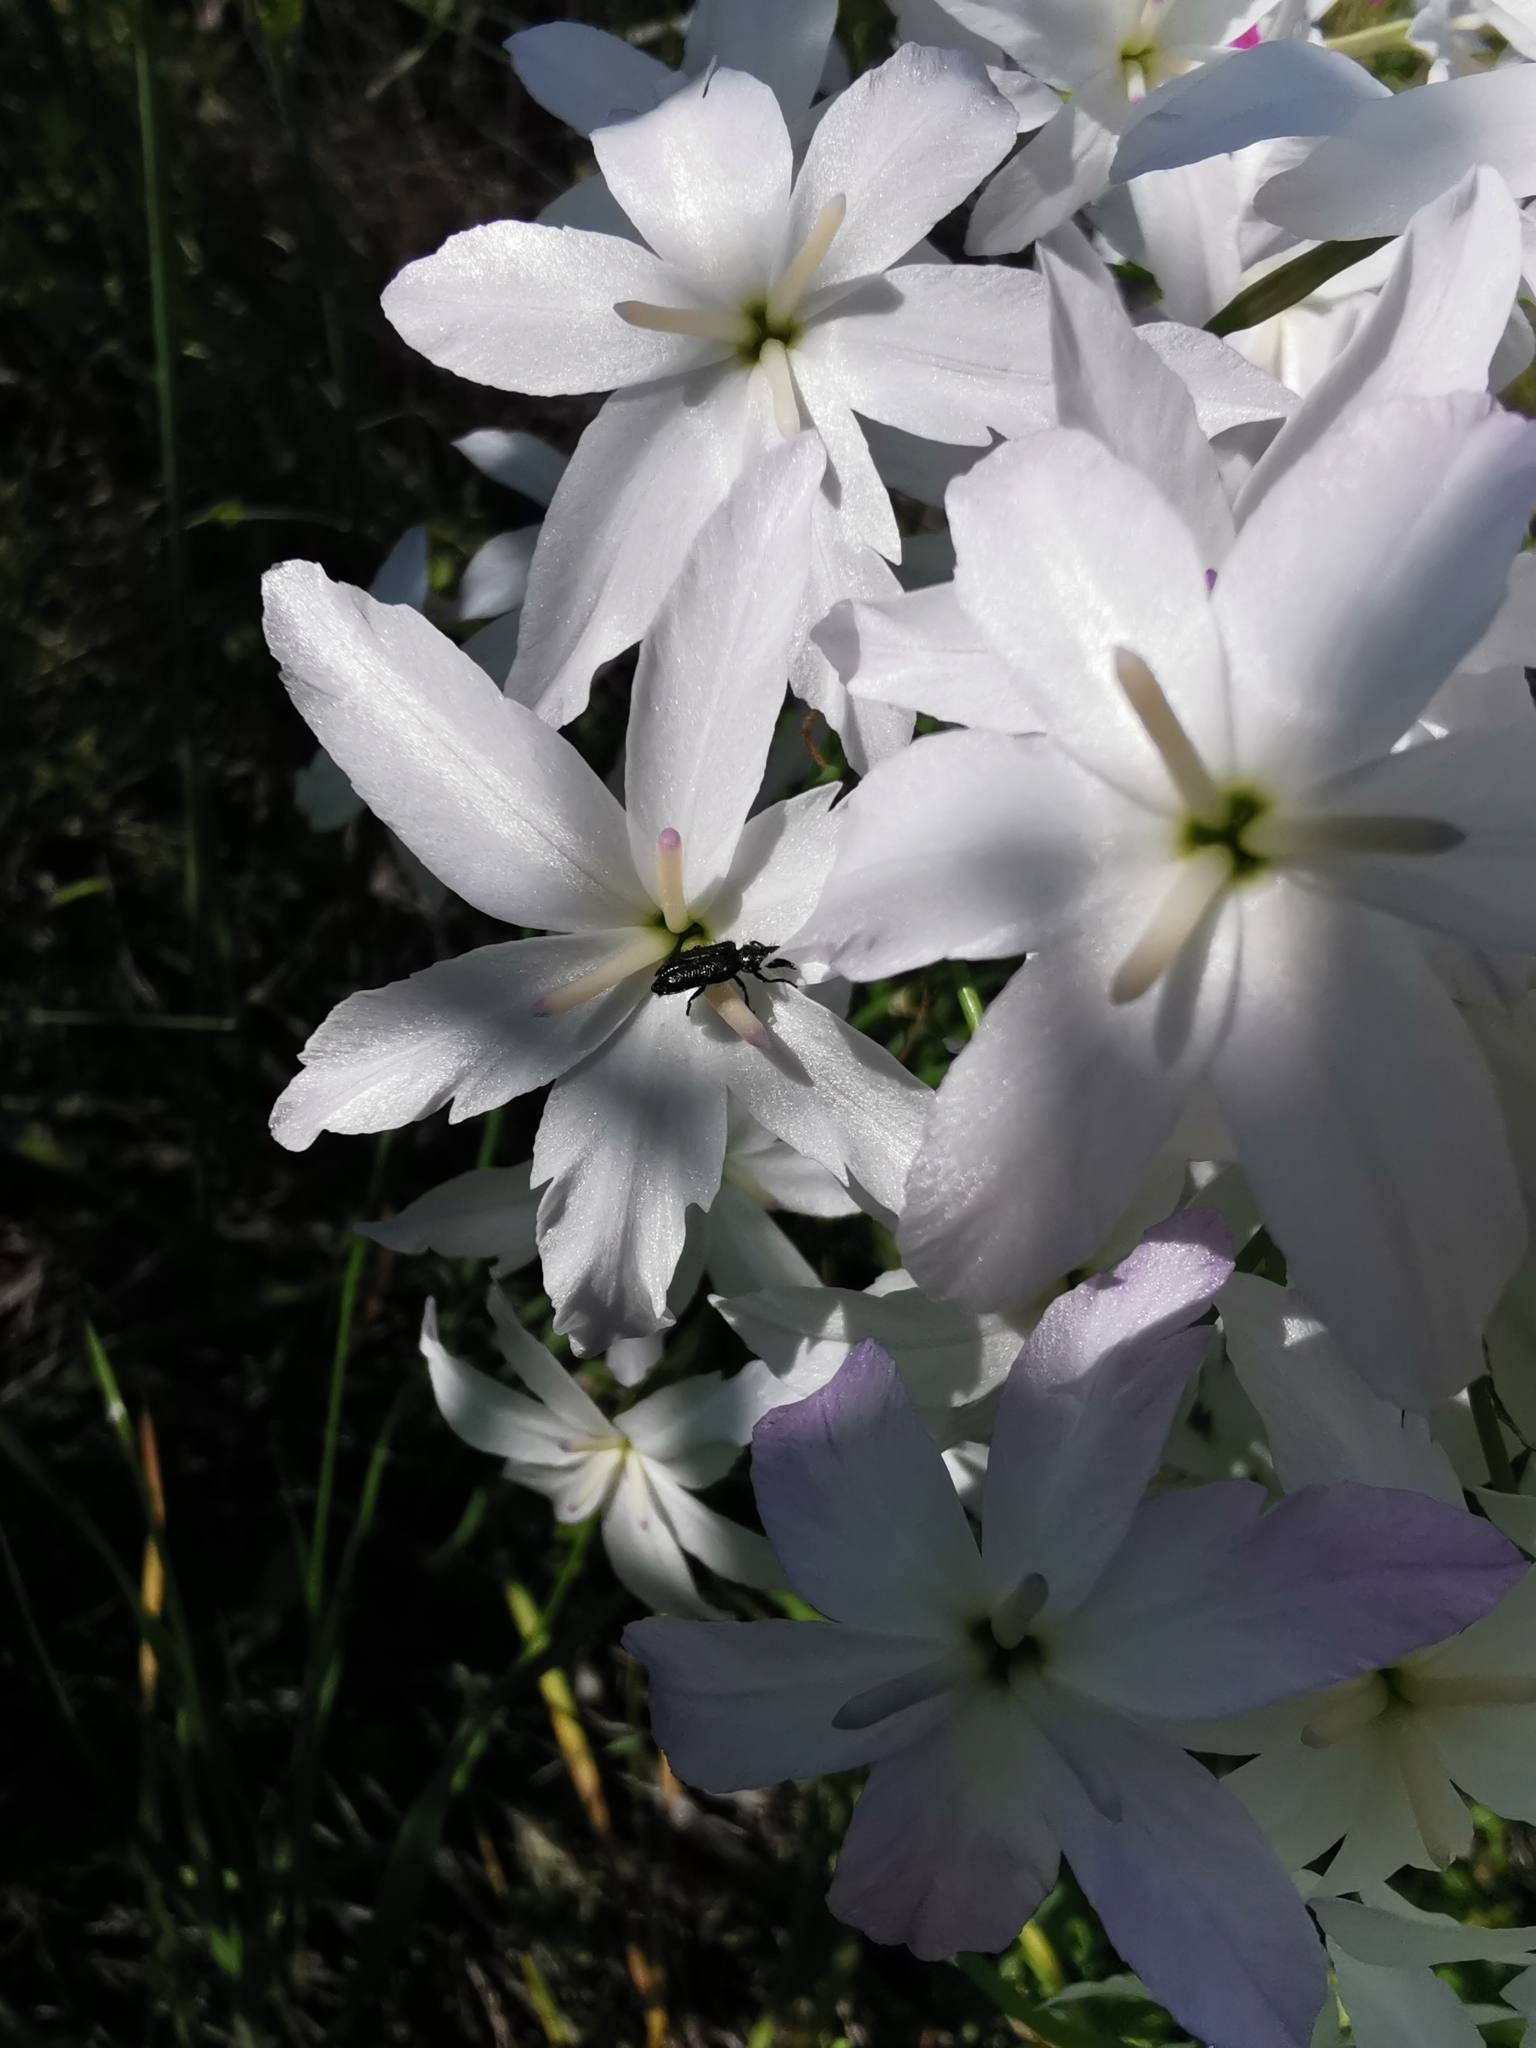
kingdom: Plantae
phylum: Tracheophyta
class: Liliopsida
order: Asparagales
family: Amaryllidaceae
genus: Leucocoryne
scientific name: Leucocoryne ixioides
